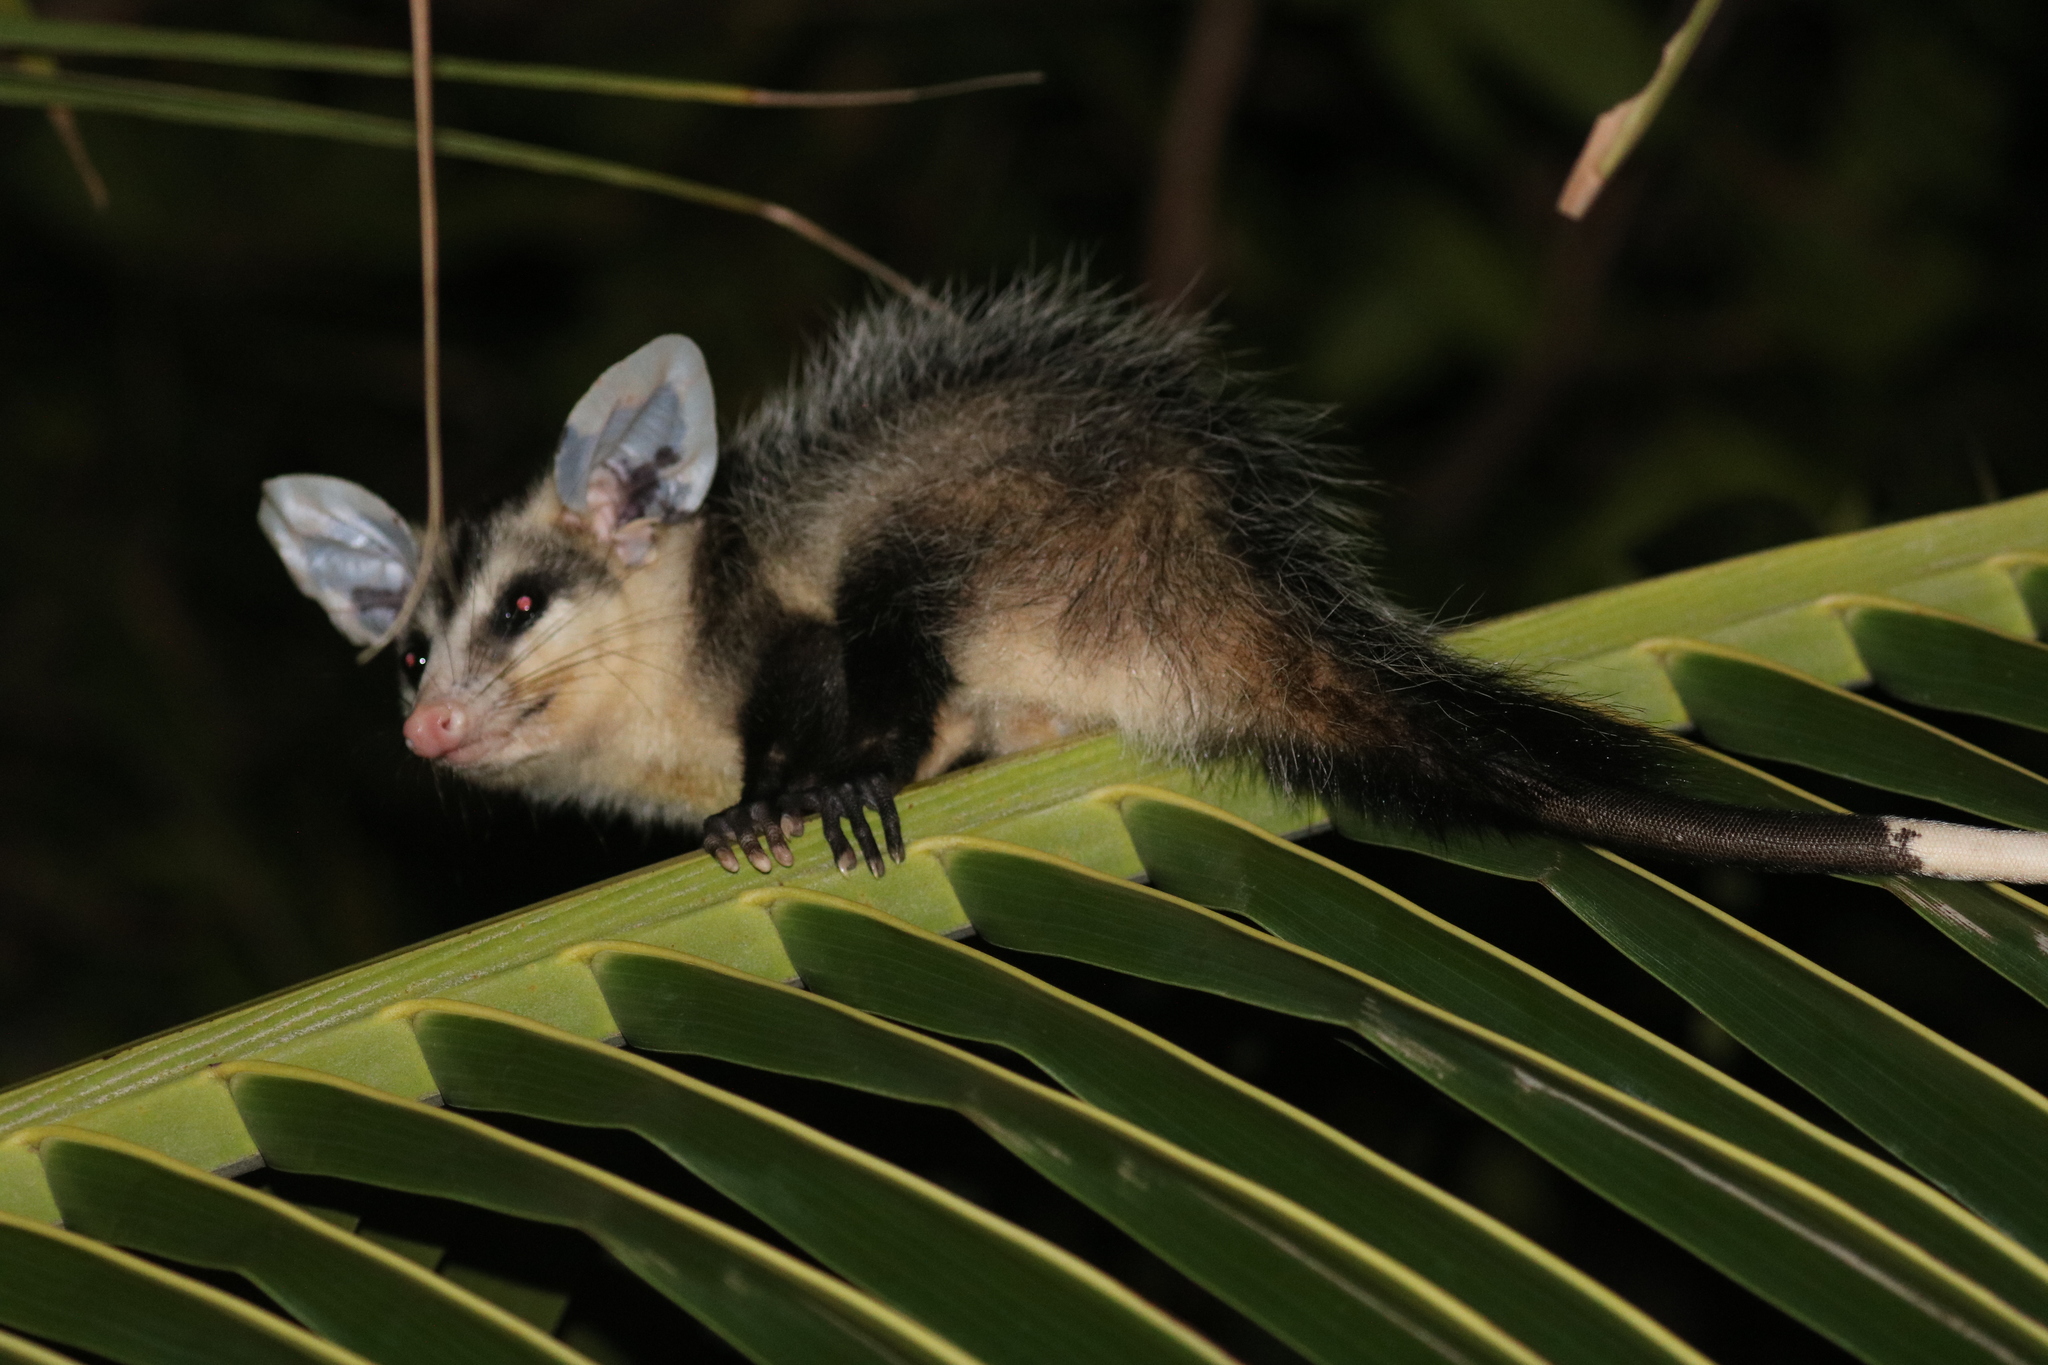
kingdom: Animalia
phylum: Chordata
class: Mammalia
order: Didelphimorphia
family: Didelphidae
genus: Didelphis
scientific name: Didelphis albiventris
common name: White-eared opossum
